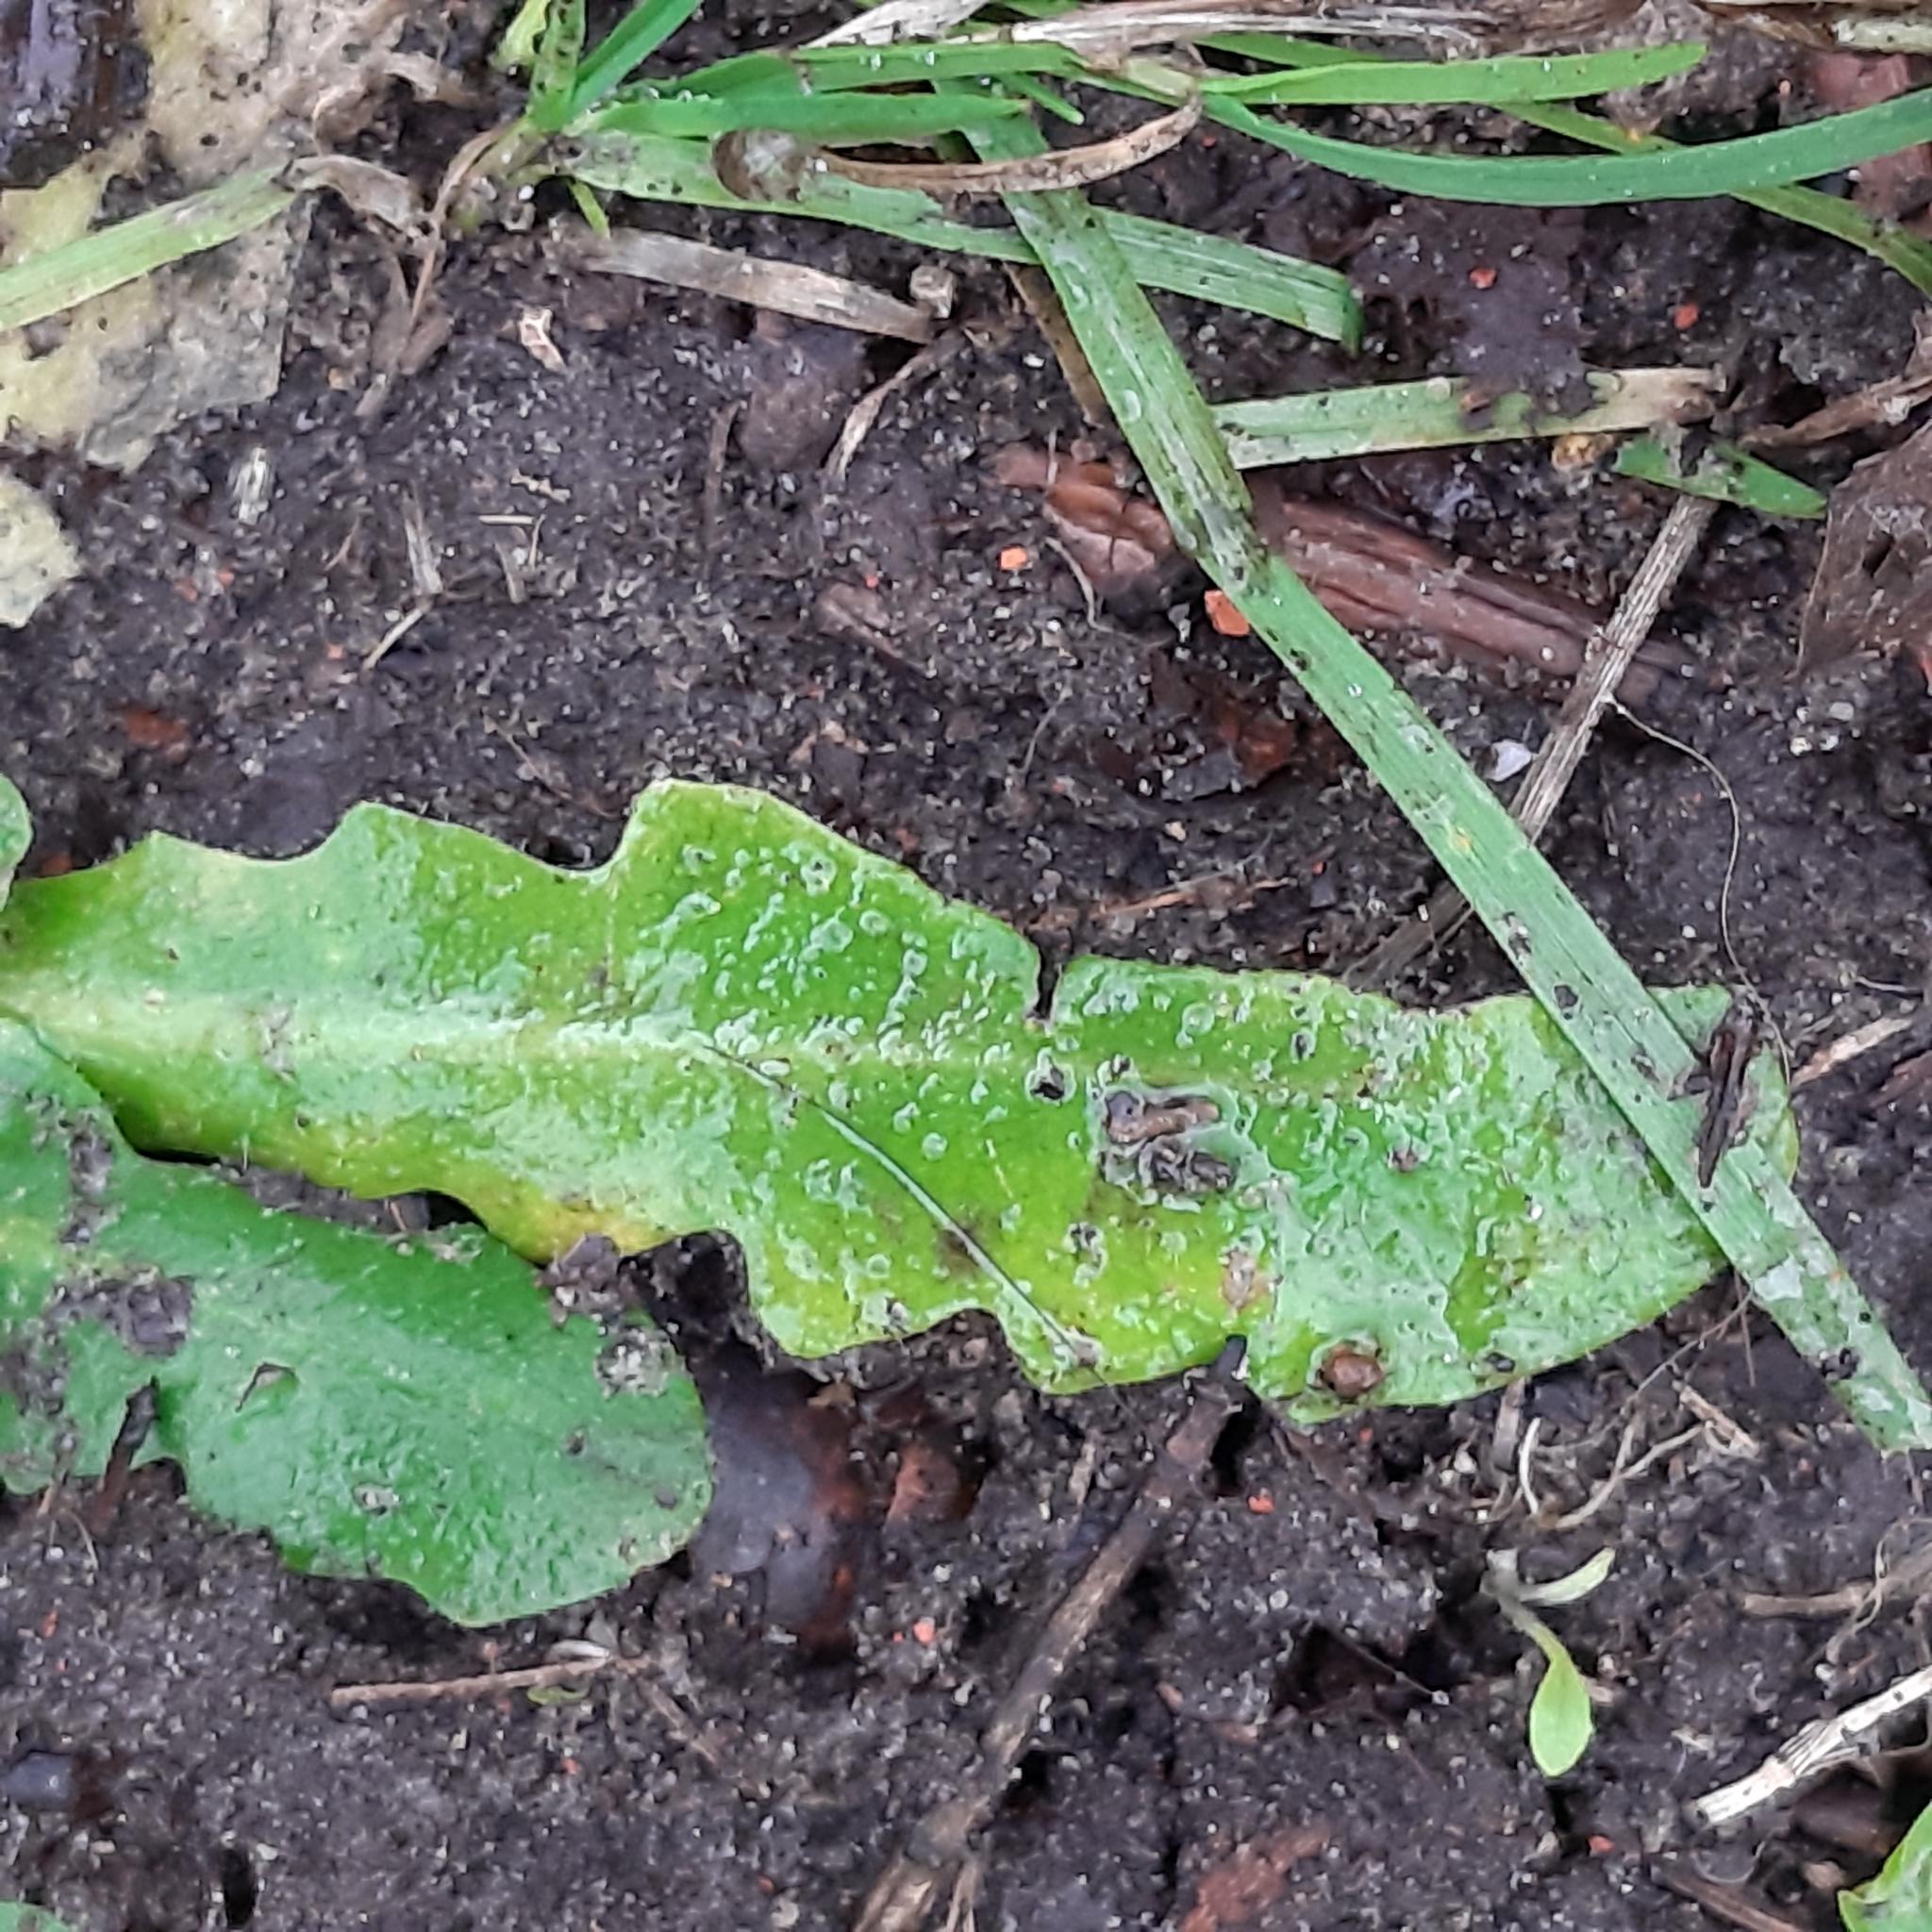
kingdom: Plantae
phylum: Tracheophyta
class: Magnoliopsida
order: Asterales
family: Asteraceae
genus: Hypochaeris
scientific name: Hypochaeris radicata
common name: Flatweed
